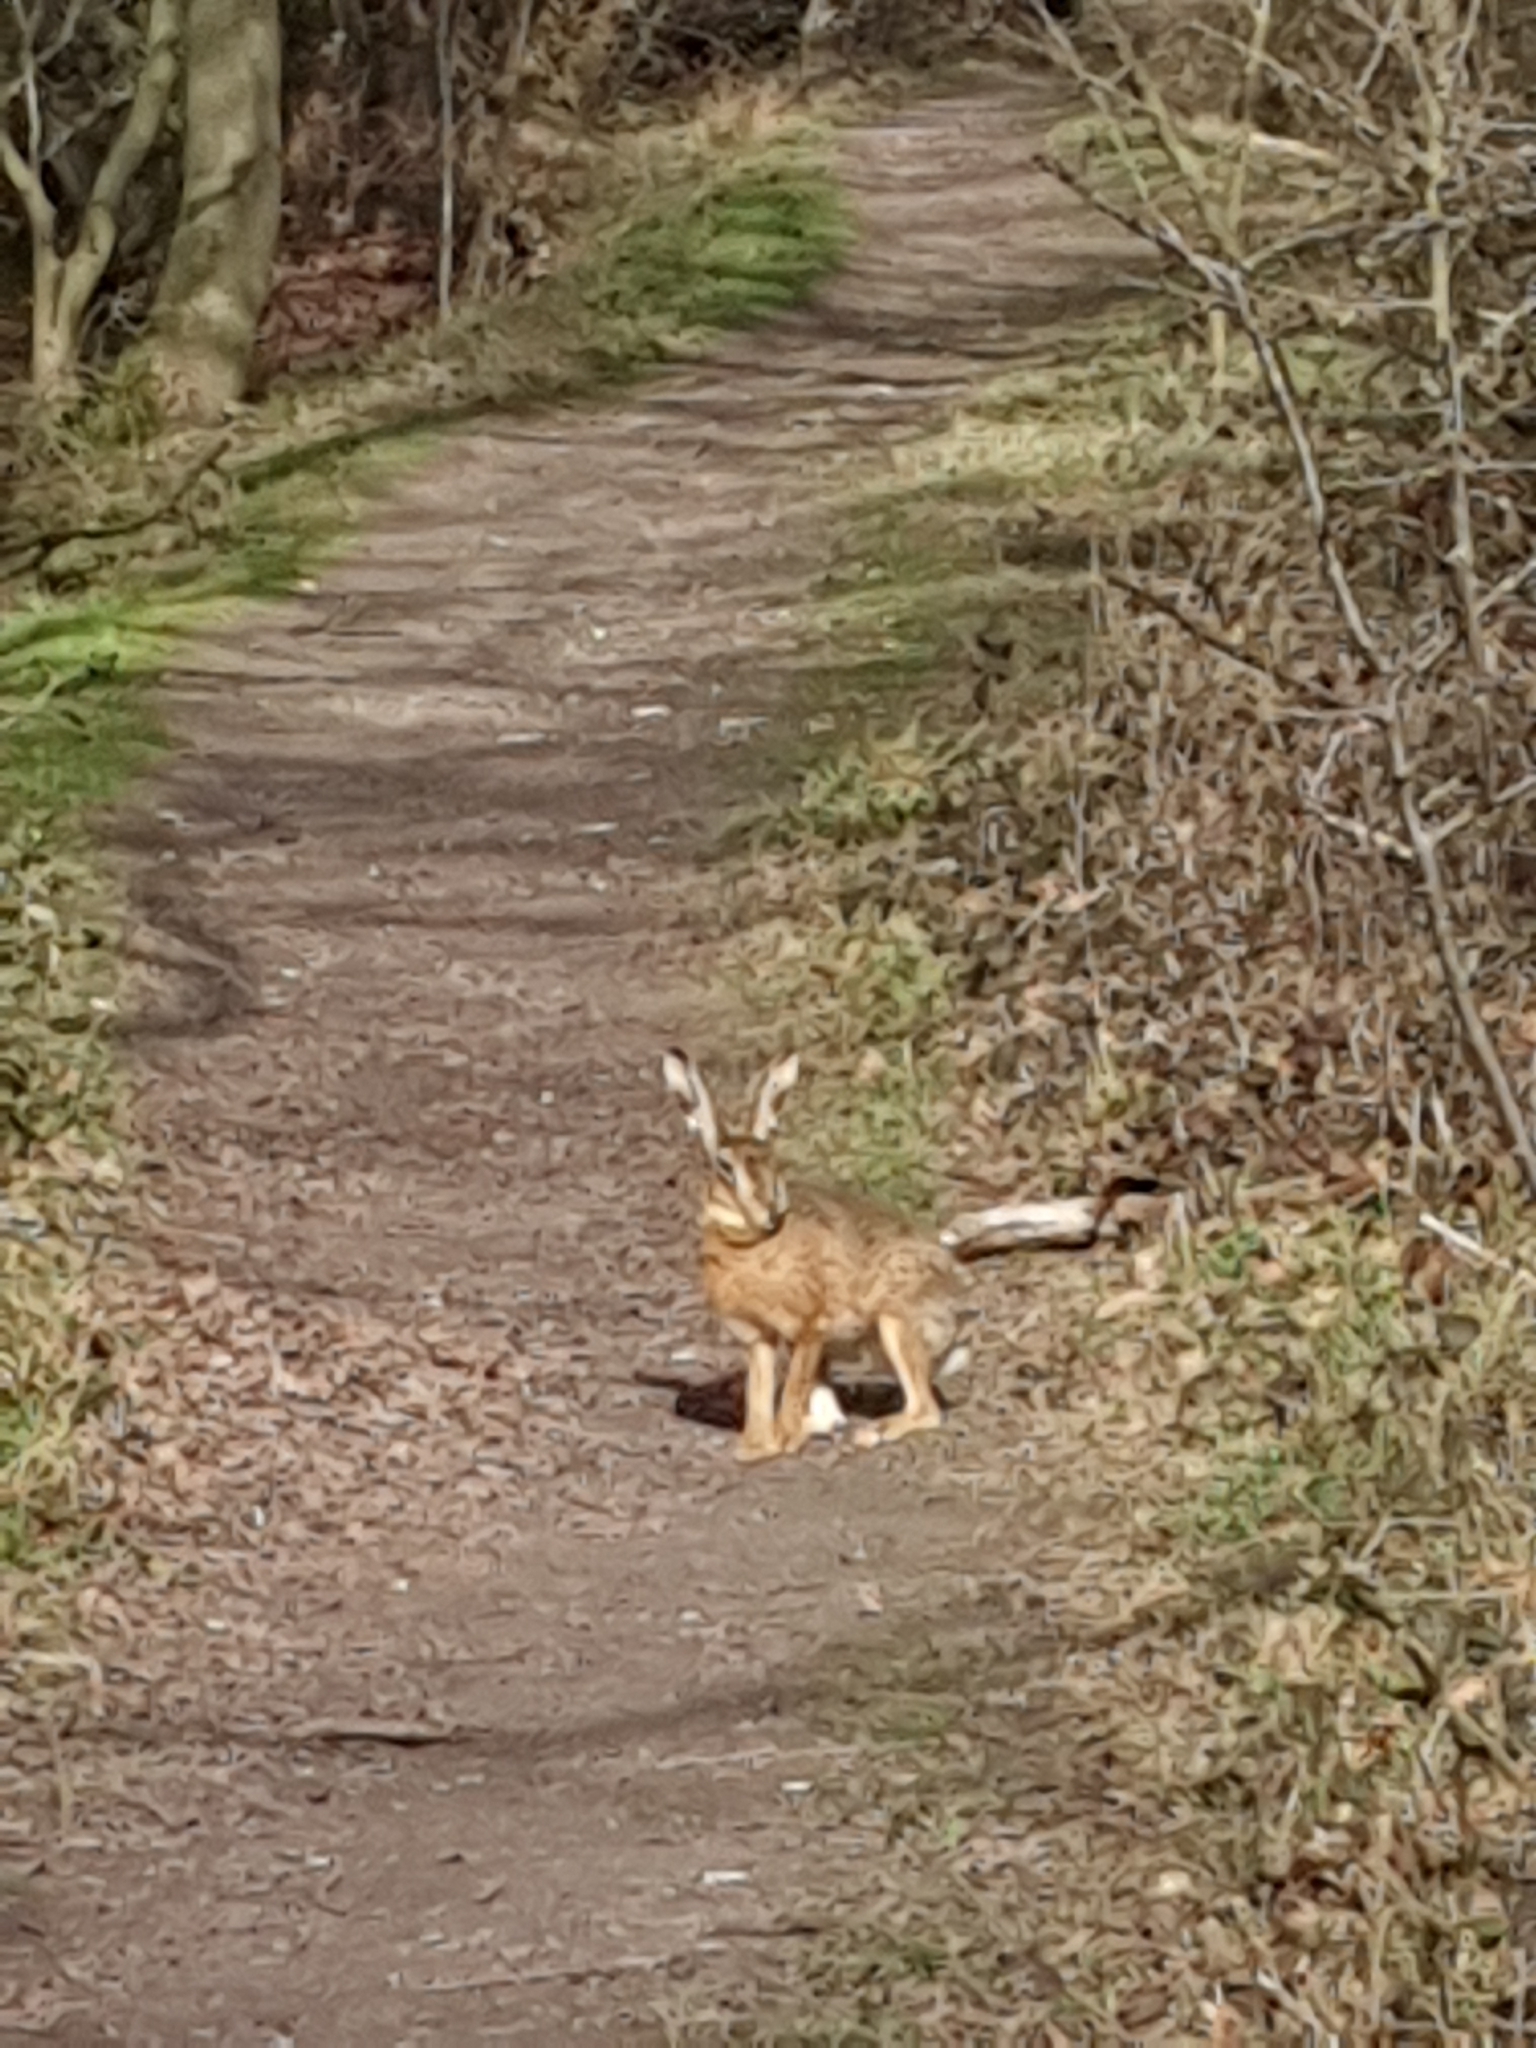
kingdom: Animalia
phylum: Chordata
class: Mammalia
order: Lagomorpha
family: Leporidae
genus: Lepus
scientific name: Lepus europaeus
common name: European hare
